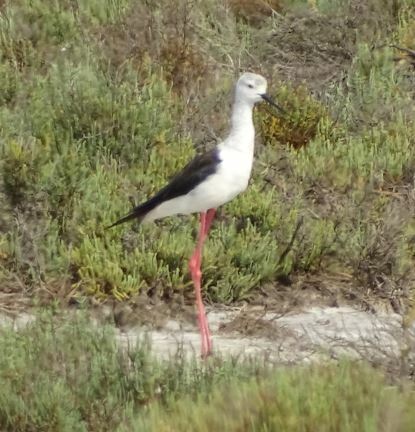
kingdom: Animalia
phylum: Chordata
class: Aves
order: Charadriiformes
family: Recurvirostridae
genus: Himantopus
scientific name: Himantopus himantopus
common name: Black-winged stilt
